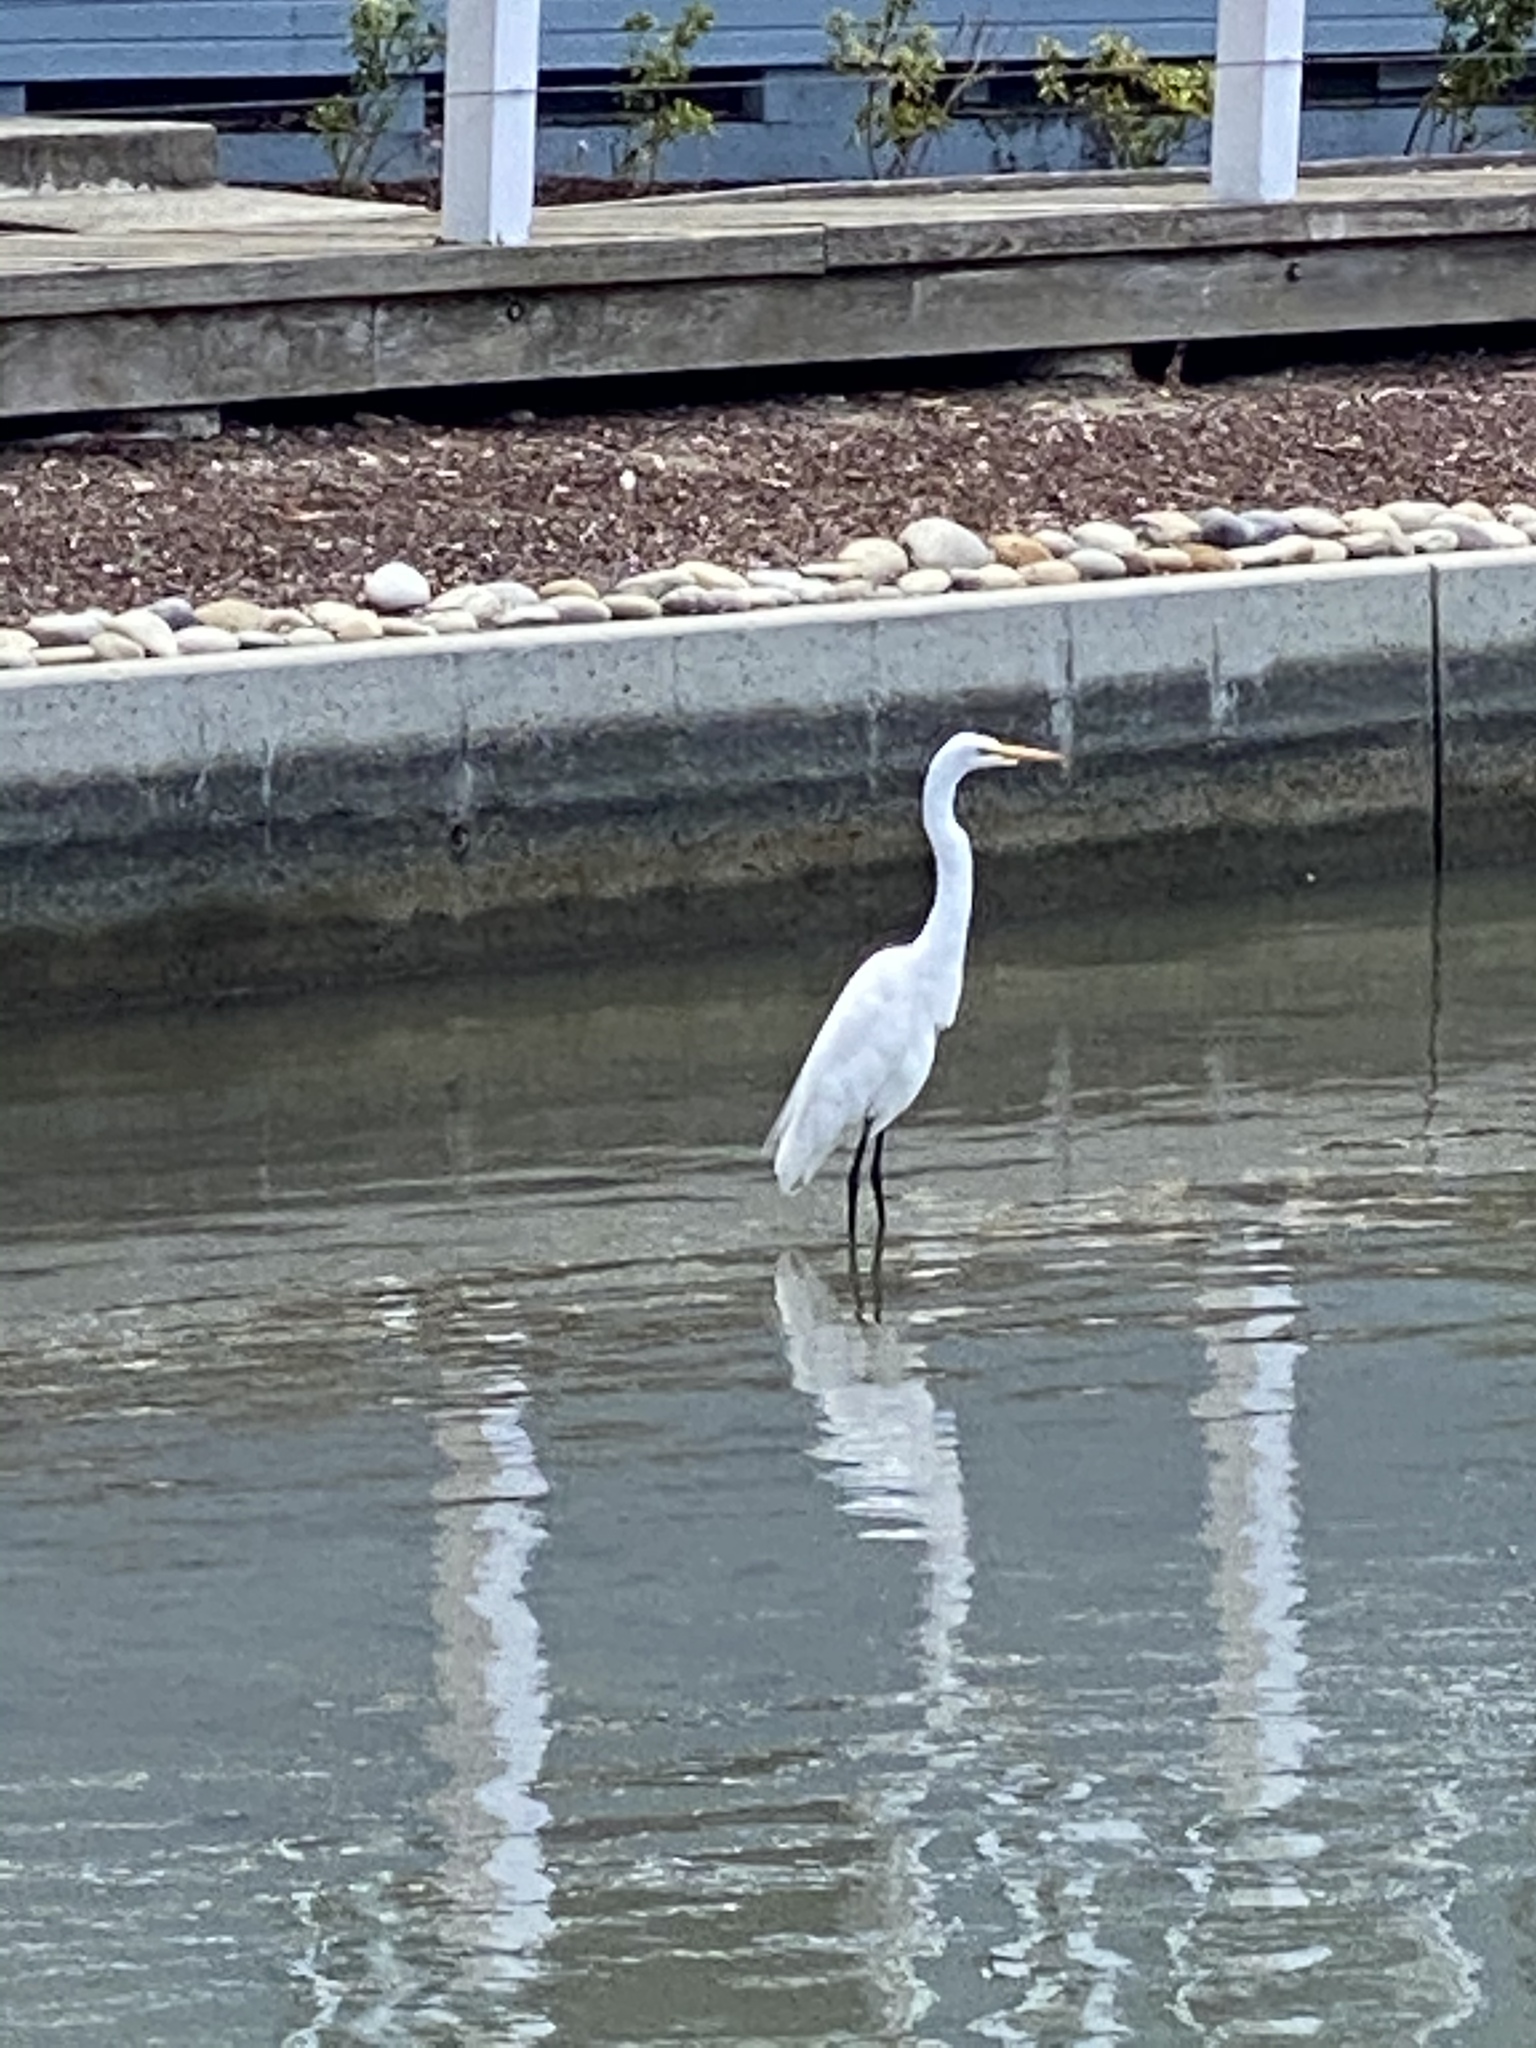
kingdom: Animalia
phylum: Chordata
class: Aves
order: Pelecaniformes
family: Ardeidae
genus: Ardea
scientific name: Ardea alba
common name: Great egret
